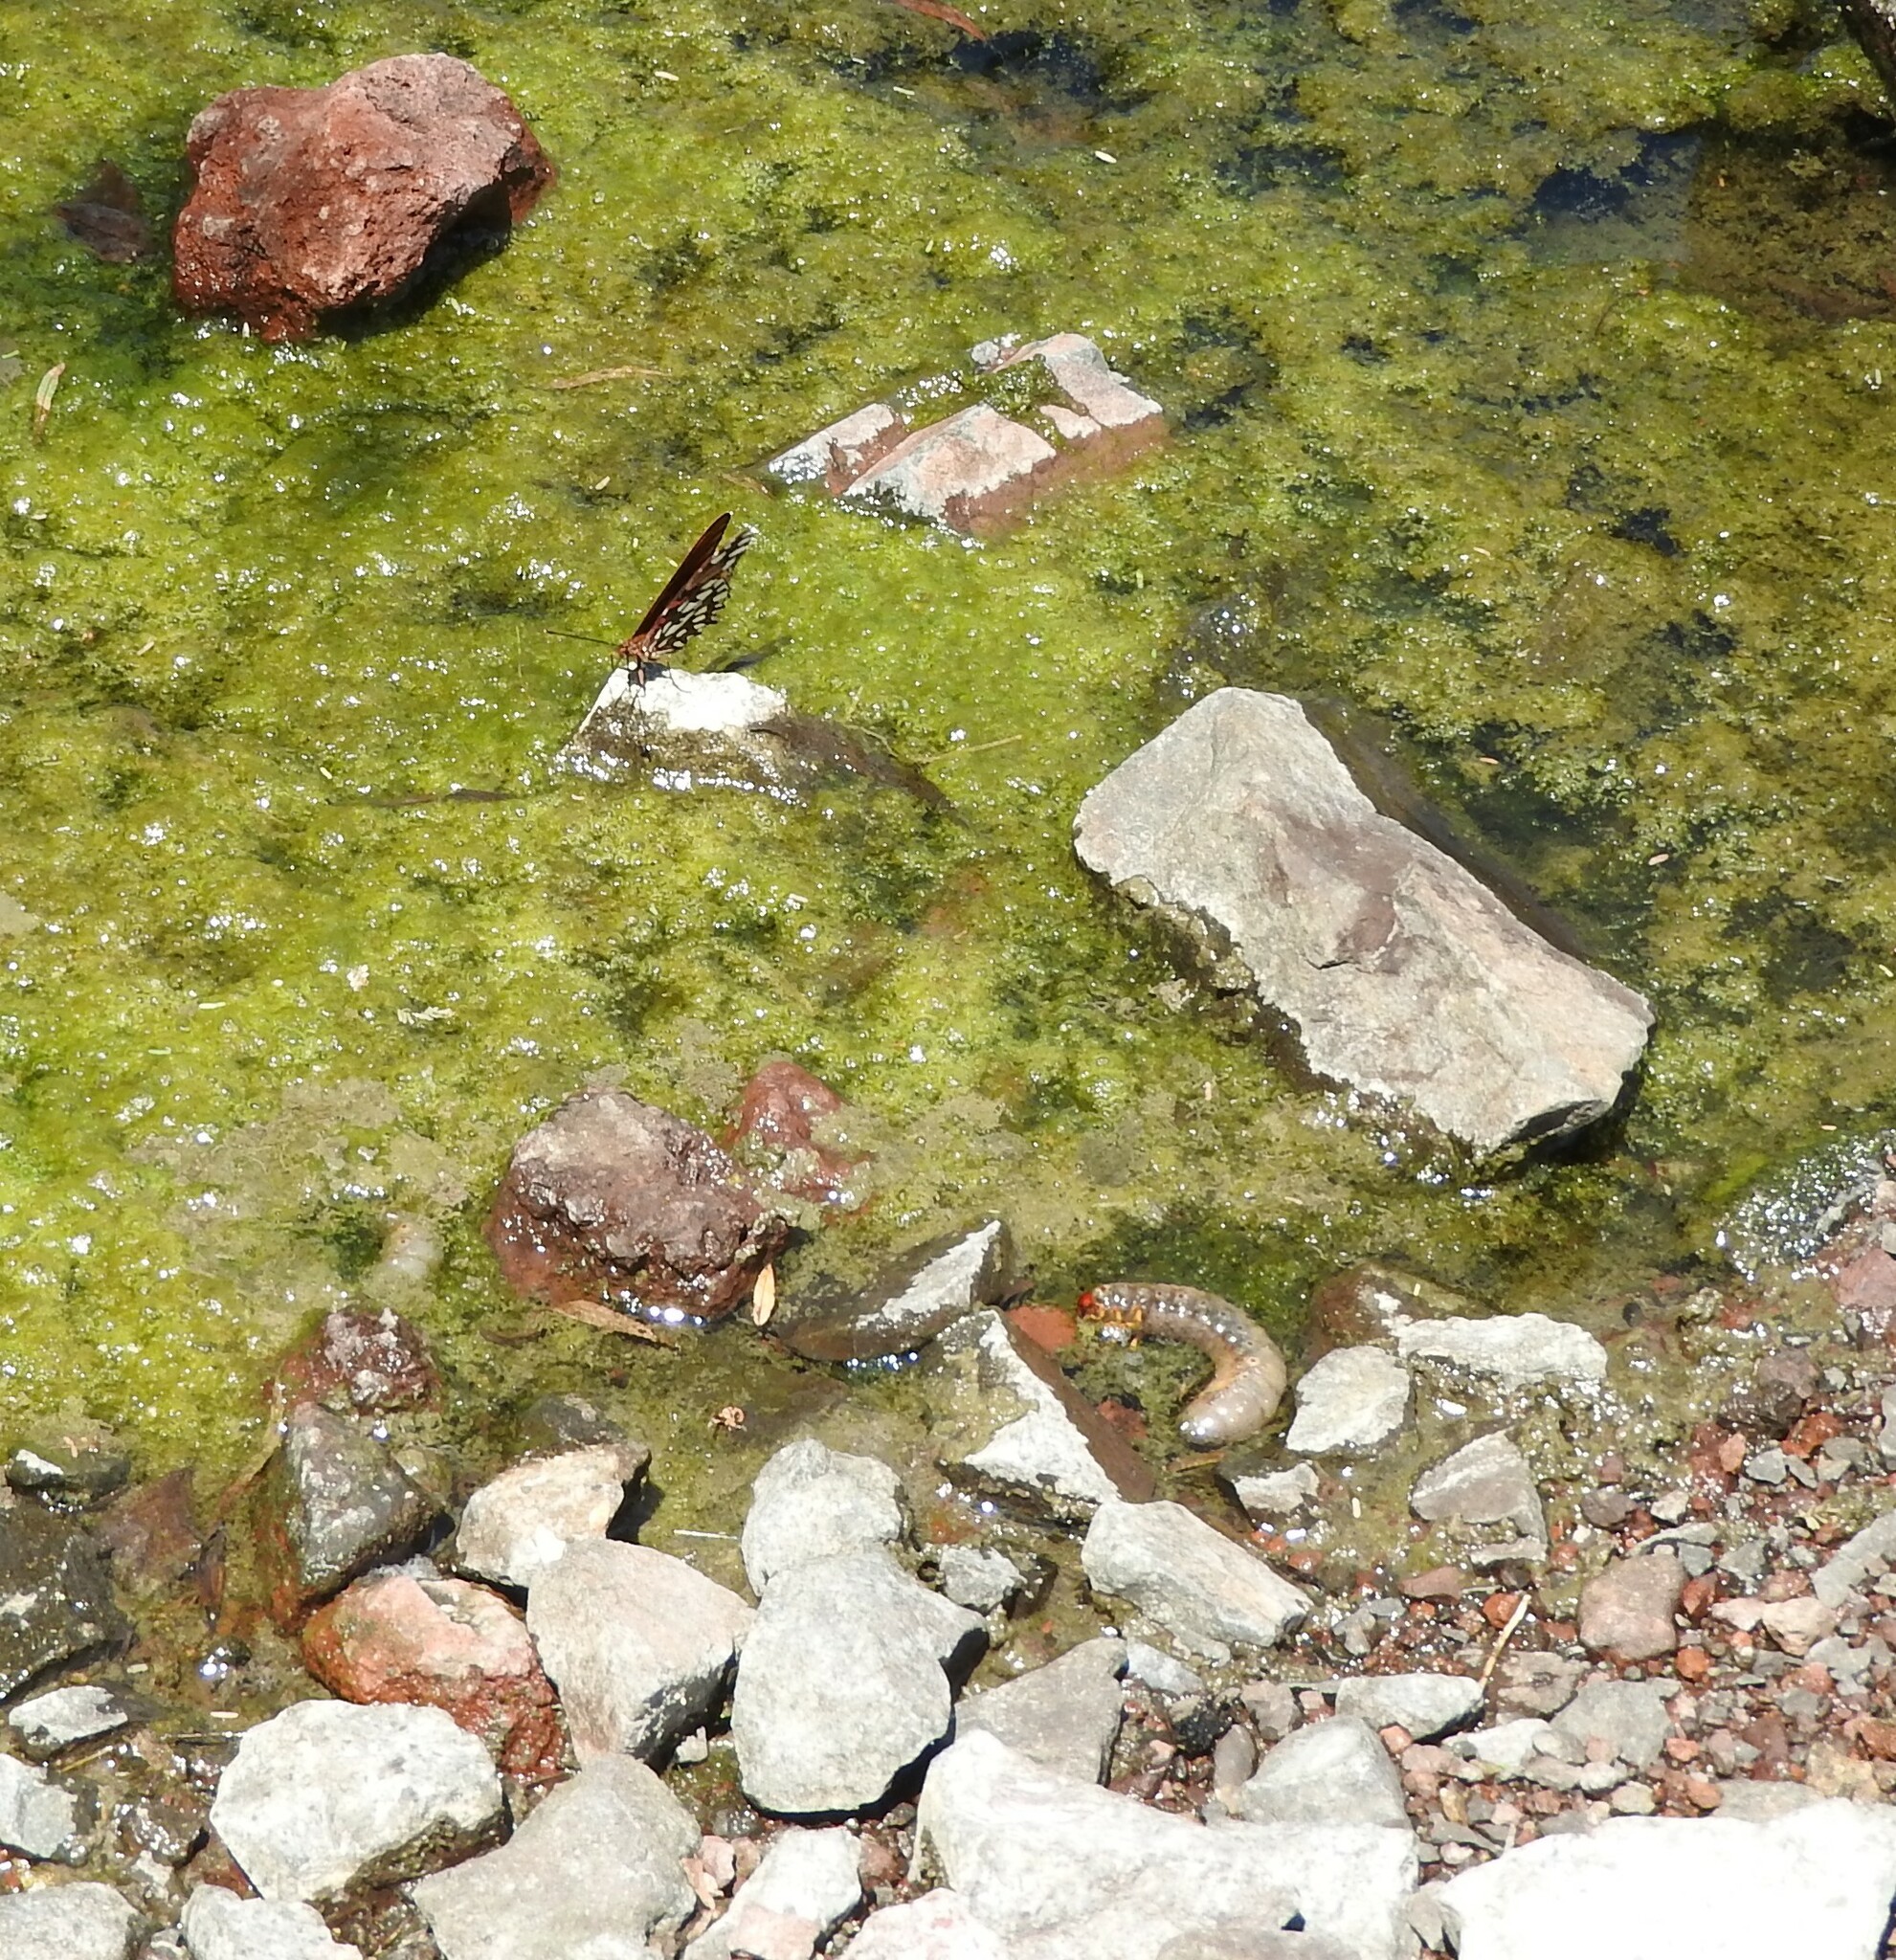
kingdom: Animalia
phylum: Arthropoda
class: Insecta
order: Lepidoptera
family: Nymphalidae
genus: Dione
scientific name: Dione moneta
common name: Mexican silverspot
